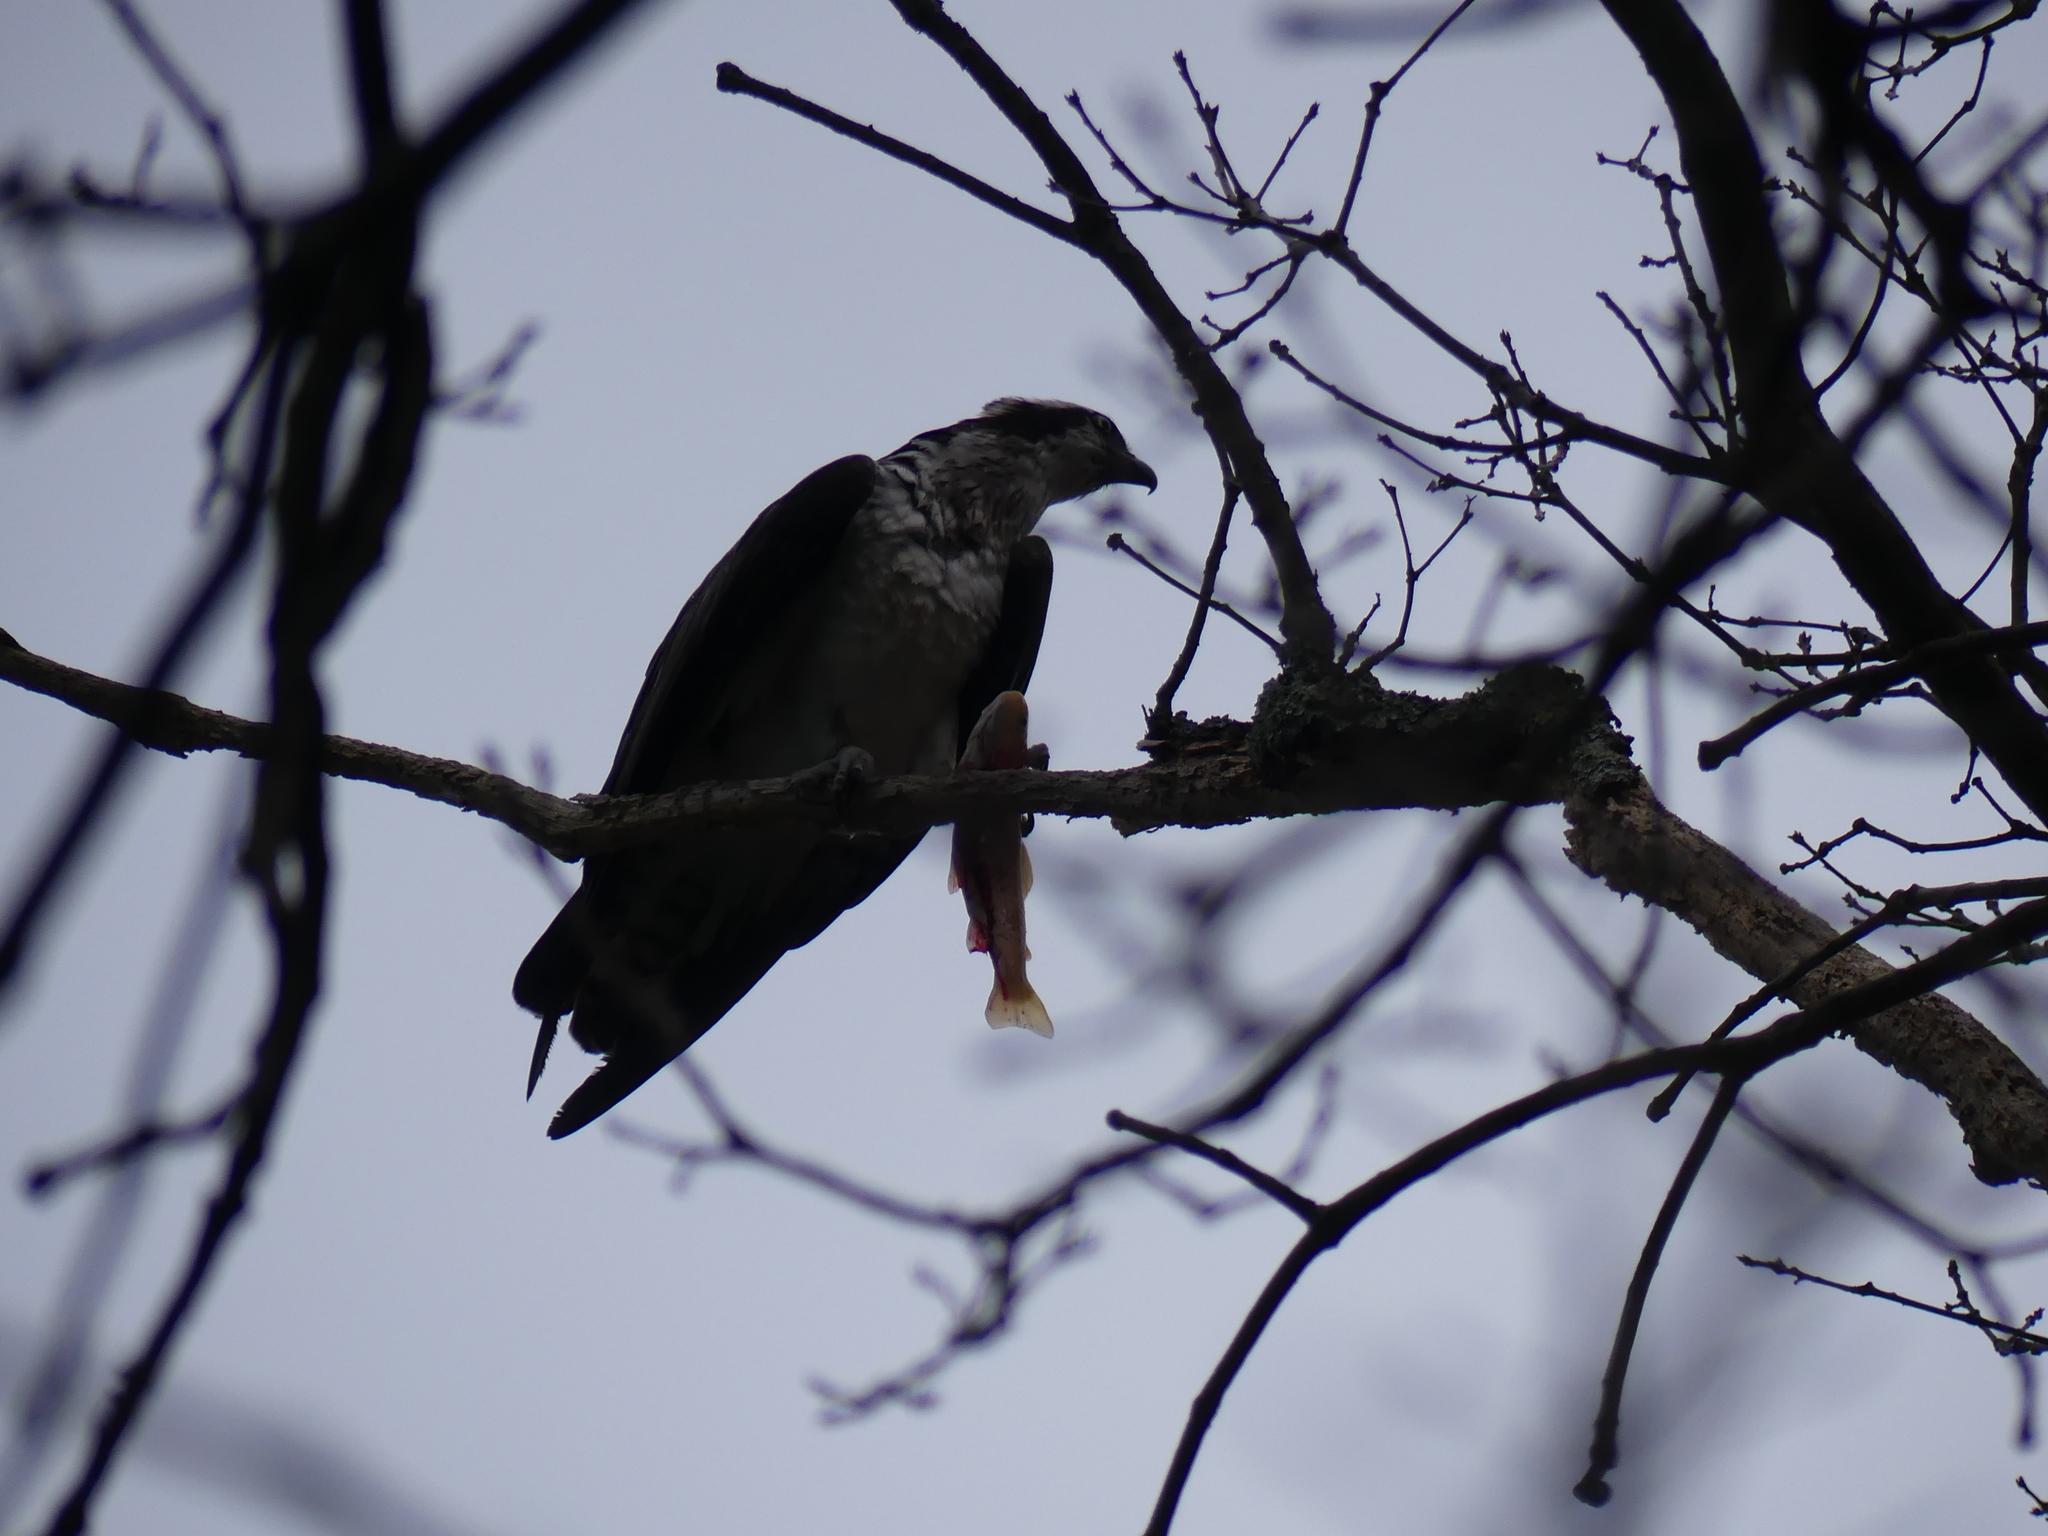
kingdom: Animalia
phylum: Chordata
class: Aves
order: Accipitriformes
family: Pandionidae
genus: Pandion
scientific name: Pandion haliaetus
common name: Osprey
